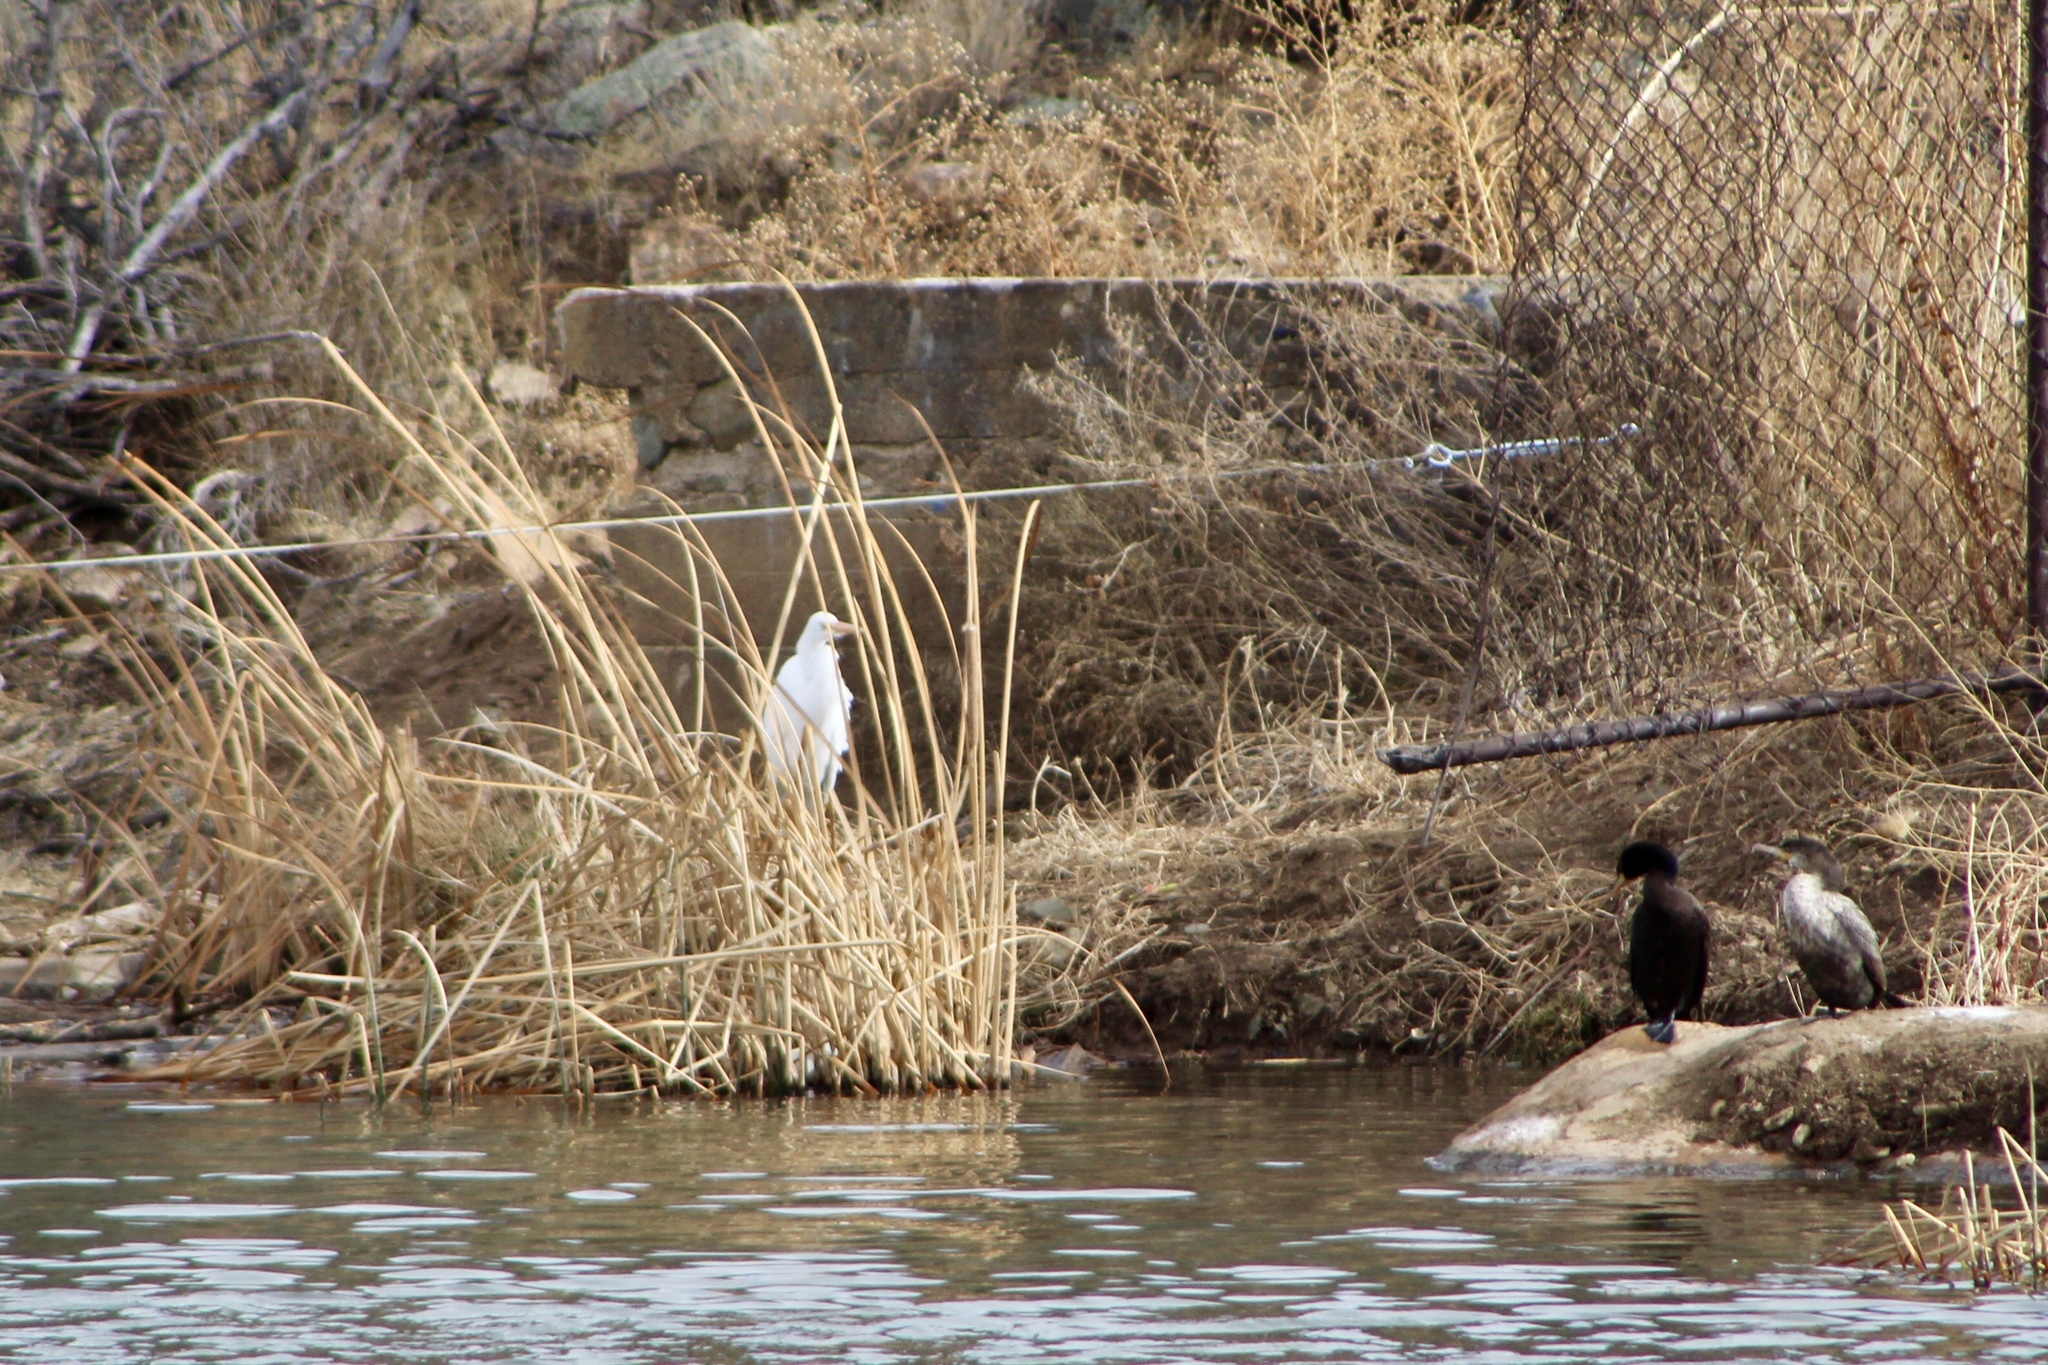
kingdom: Animalia
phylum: Chordata
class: Aves
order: Pelecaniformes
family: Ardeidae
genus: Ardea
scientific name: Ardea alba
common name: Great egret
